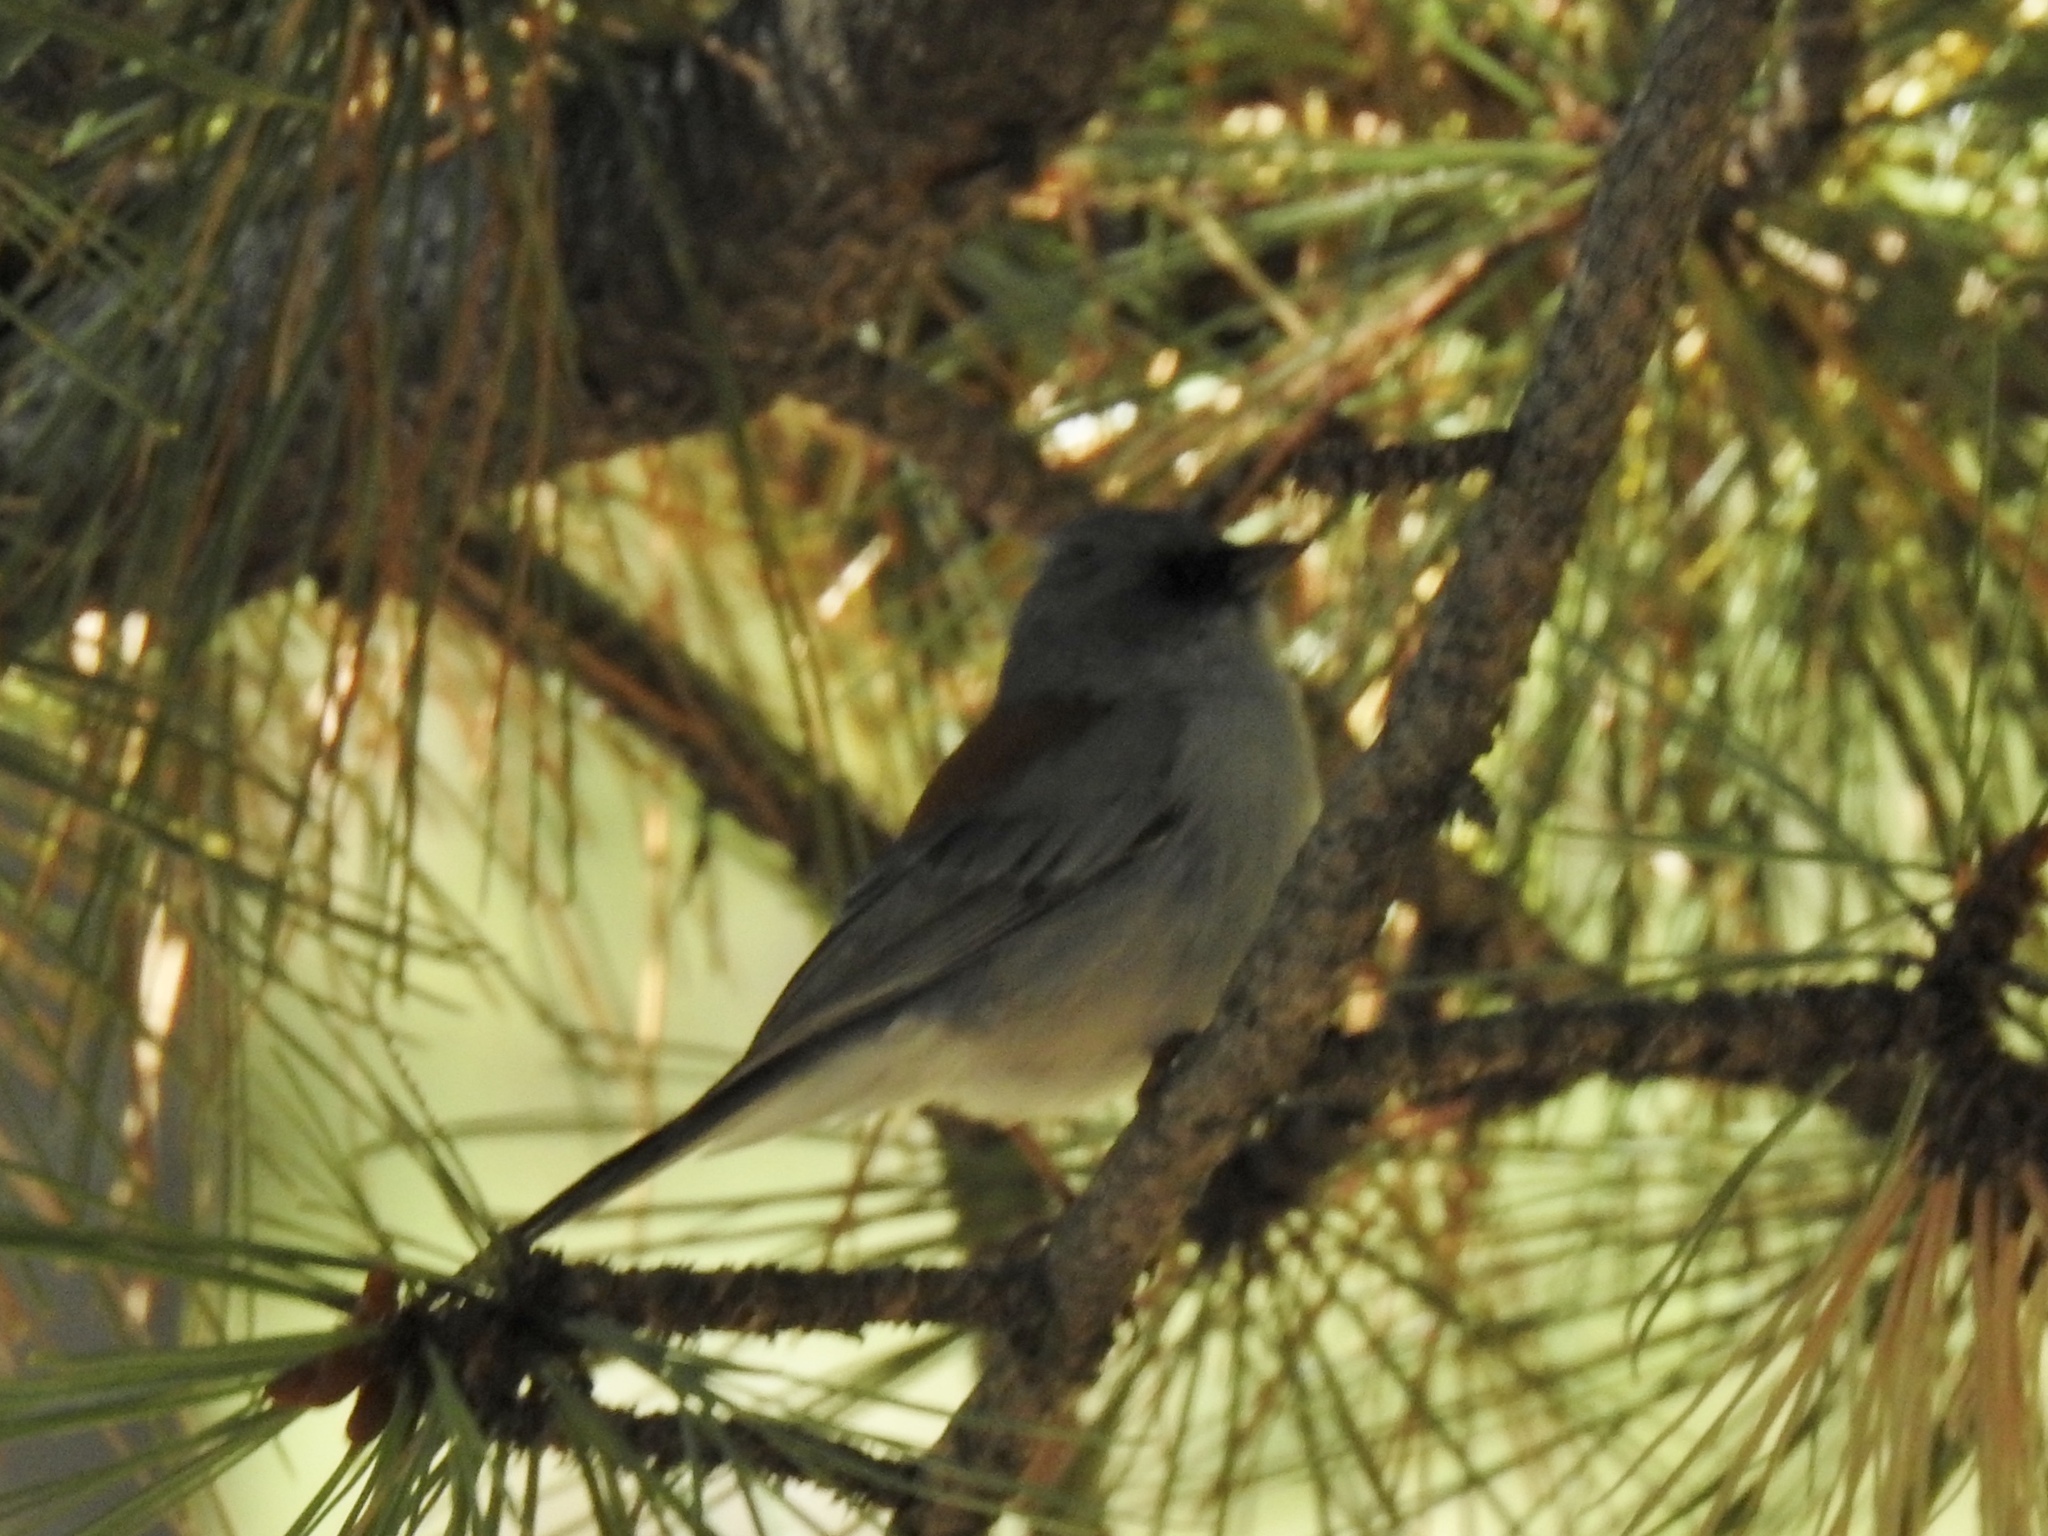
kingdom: Animalia
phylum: Chordata
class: Aves
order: Passeriformes
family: Passerellidae
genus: Junco
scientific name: Junco hyemalis
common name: Dark-eyed junco
